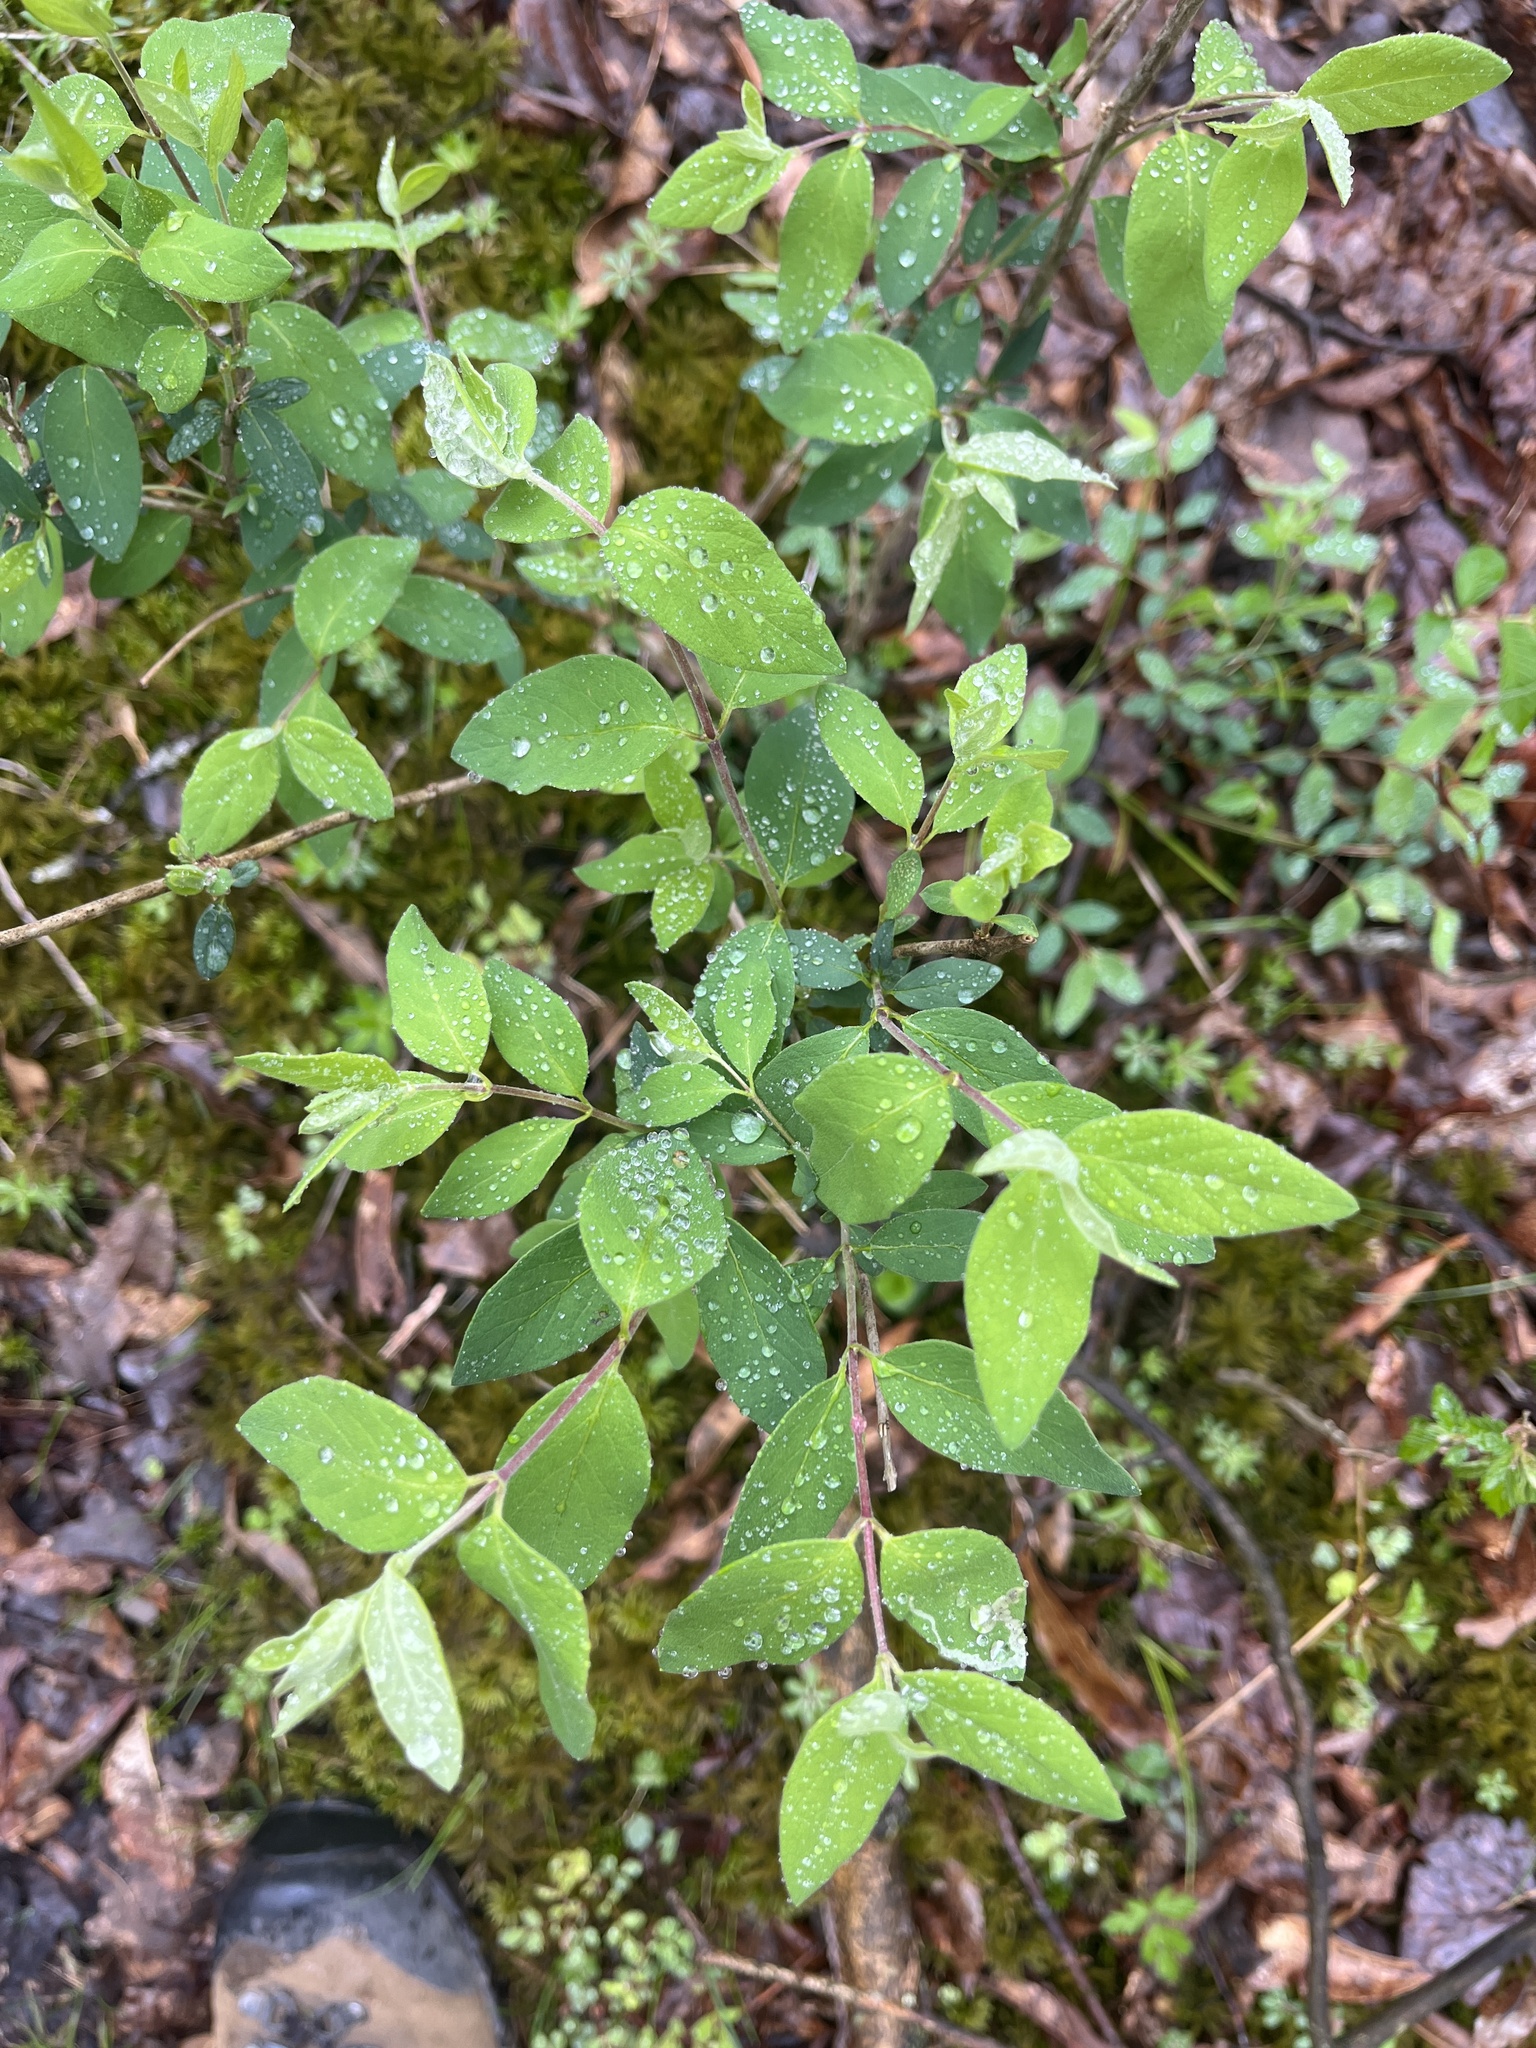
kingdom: Plantae
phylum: Tracheophyta
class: Magnoliopsida
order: Dipsacales
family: Caprifoliaceae
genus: Lonicera
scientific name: Lonicera morrowii
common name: Morrow's honeysuckle
